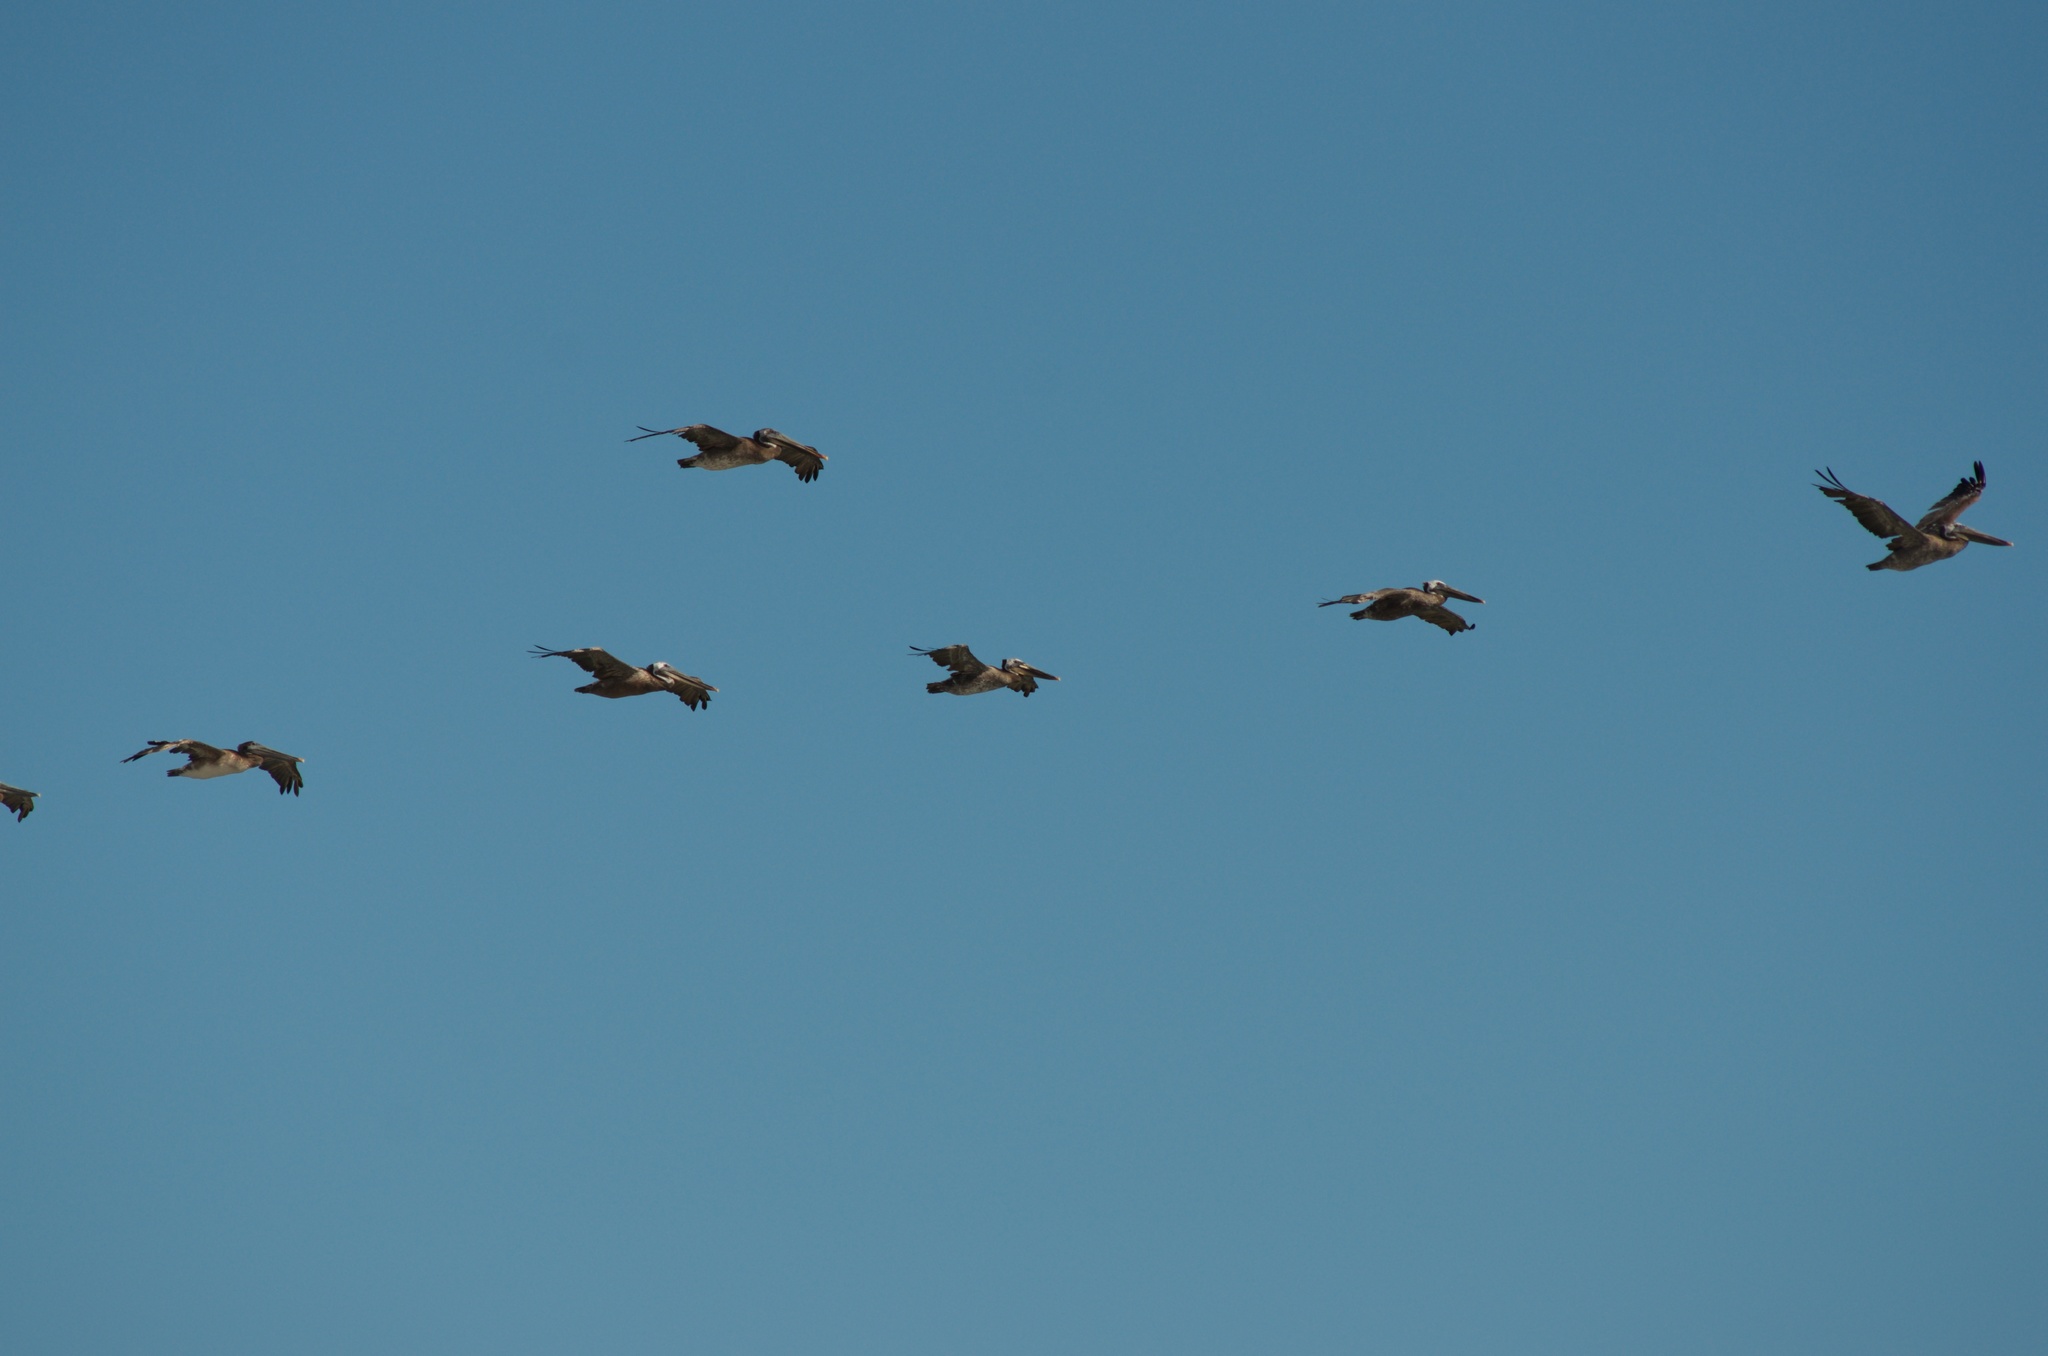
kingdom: Animalia
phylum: Chordata
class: Aves
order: Pelecaniformes
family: Pelecanidae
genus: Pelecanus
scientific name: Pelecanus occidentalis
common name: Brown pelican
